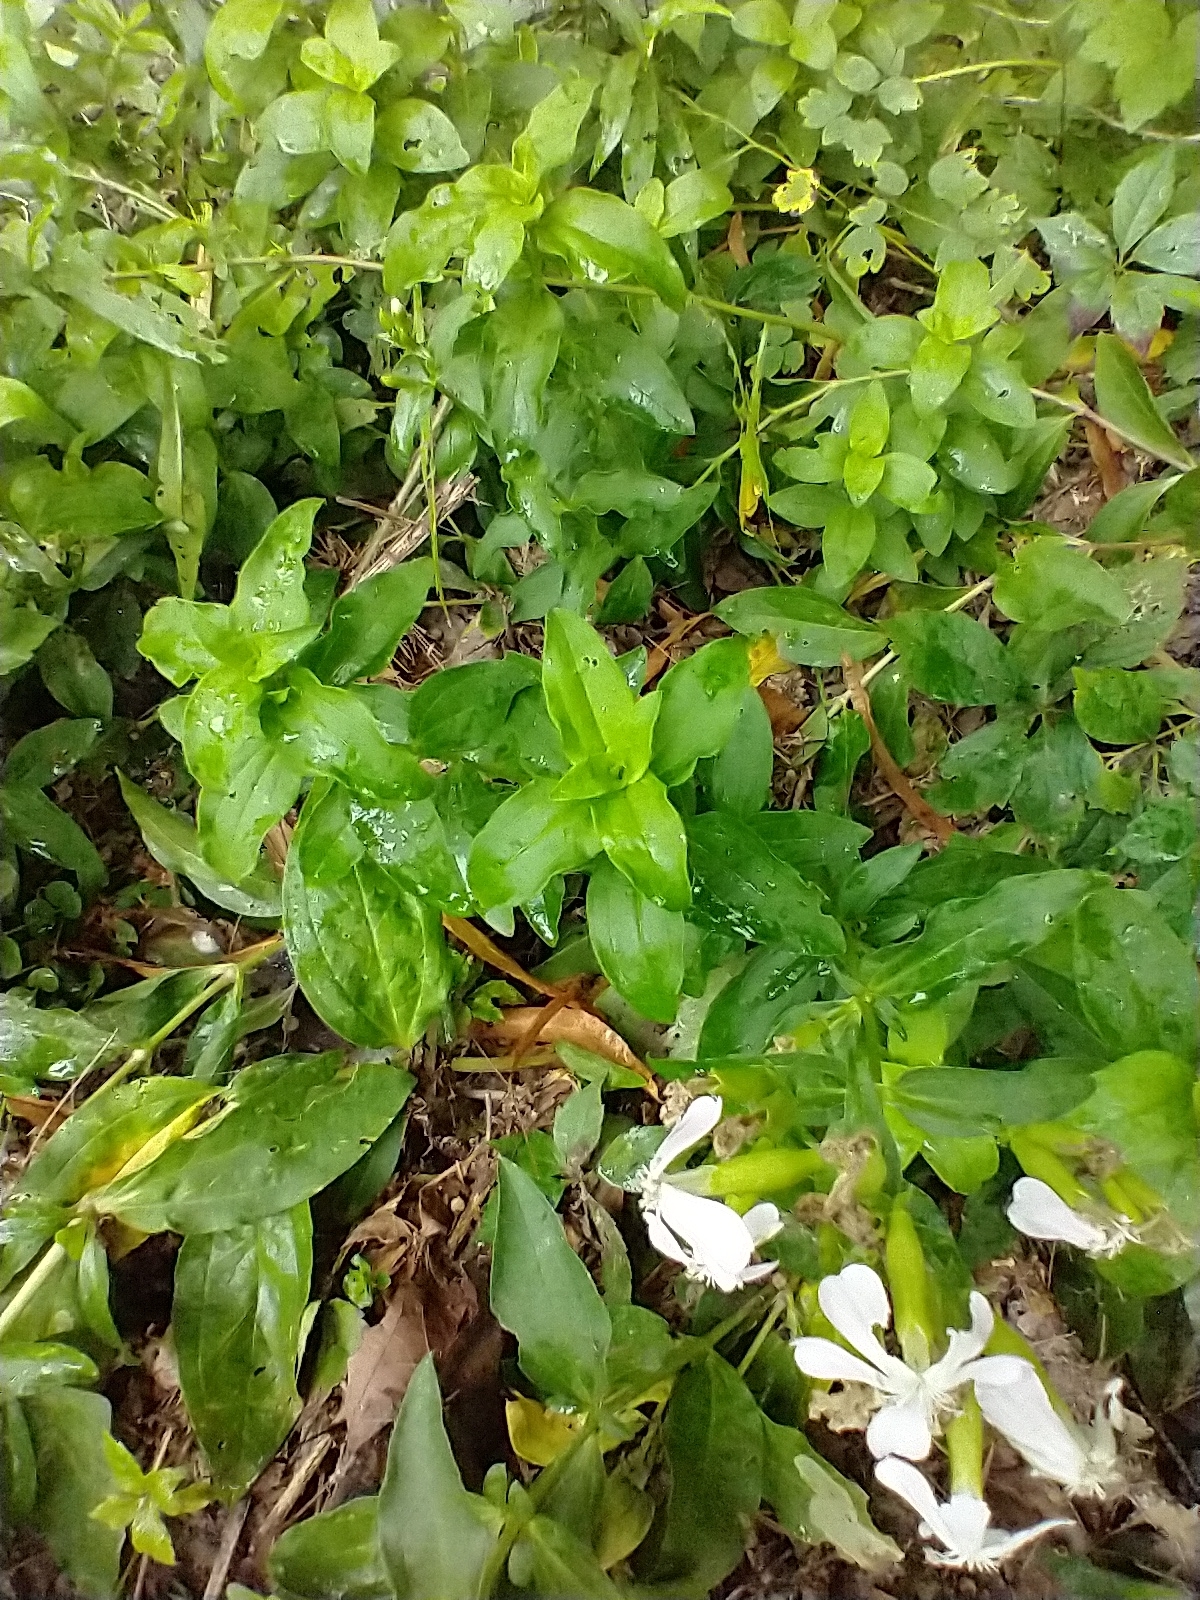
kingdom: Plantae
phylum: Tracheophyta
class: Magnoliopsida
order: Caryophyllales
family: Caryophyllaceae
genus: Saponaria
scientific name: Saponaria officinalis
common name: Soapwort
